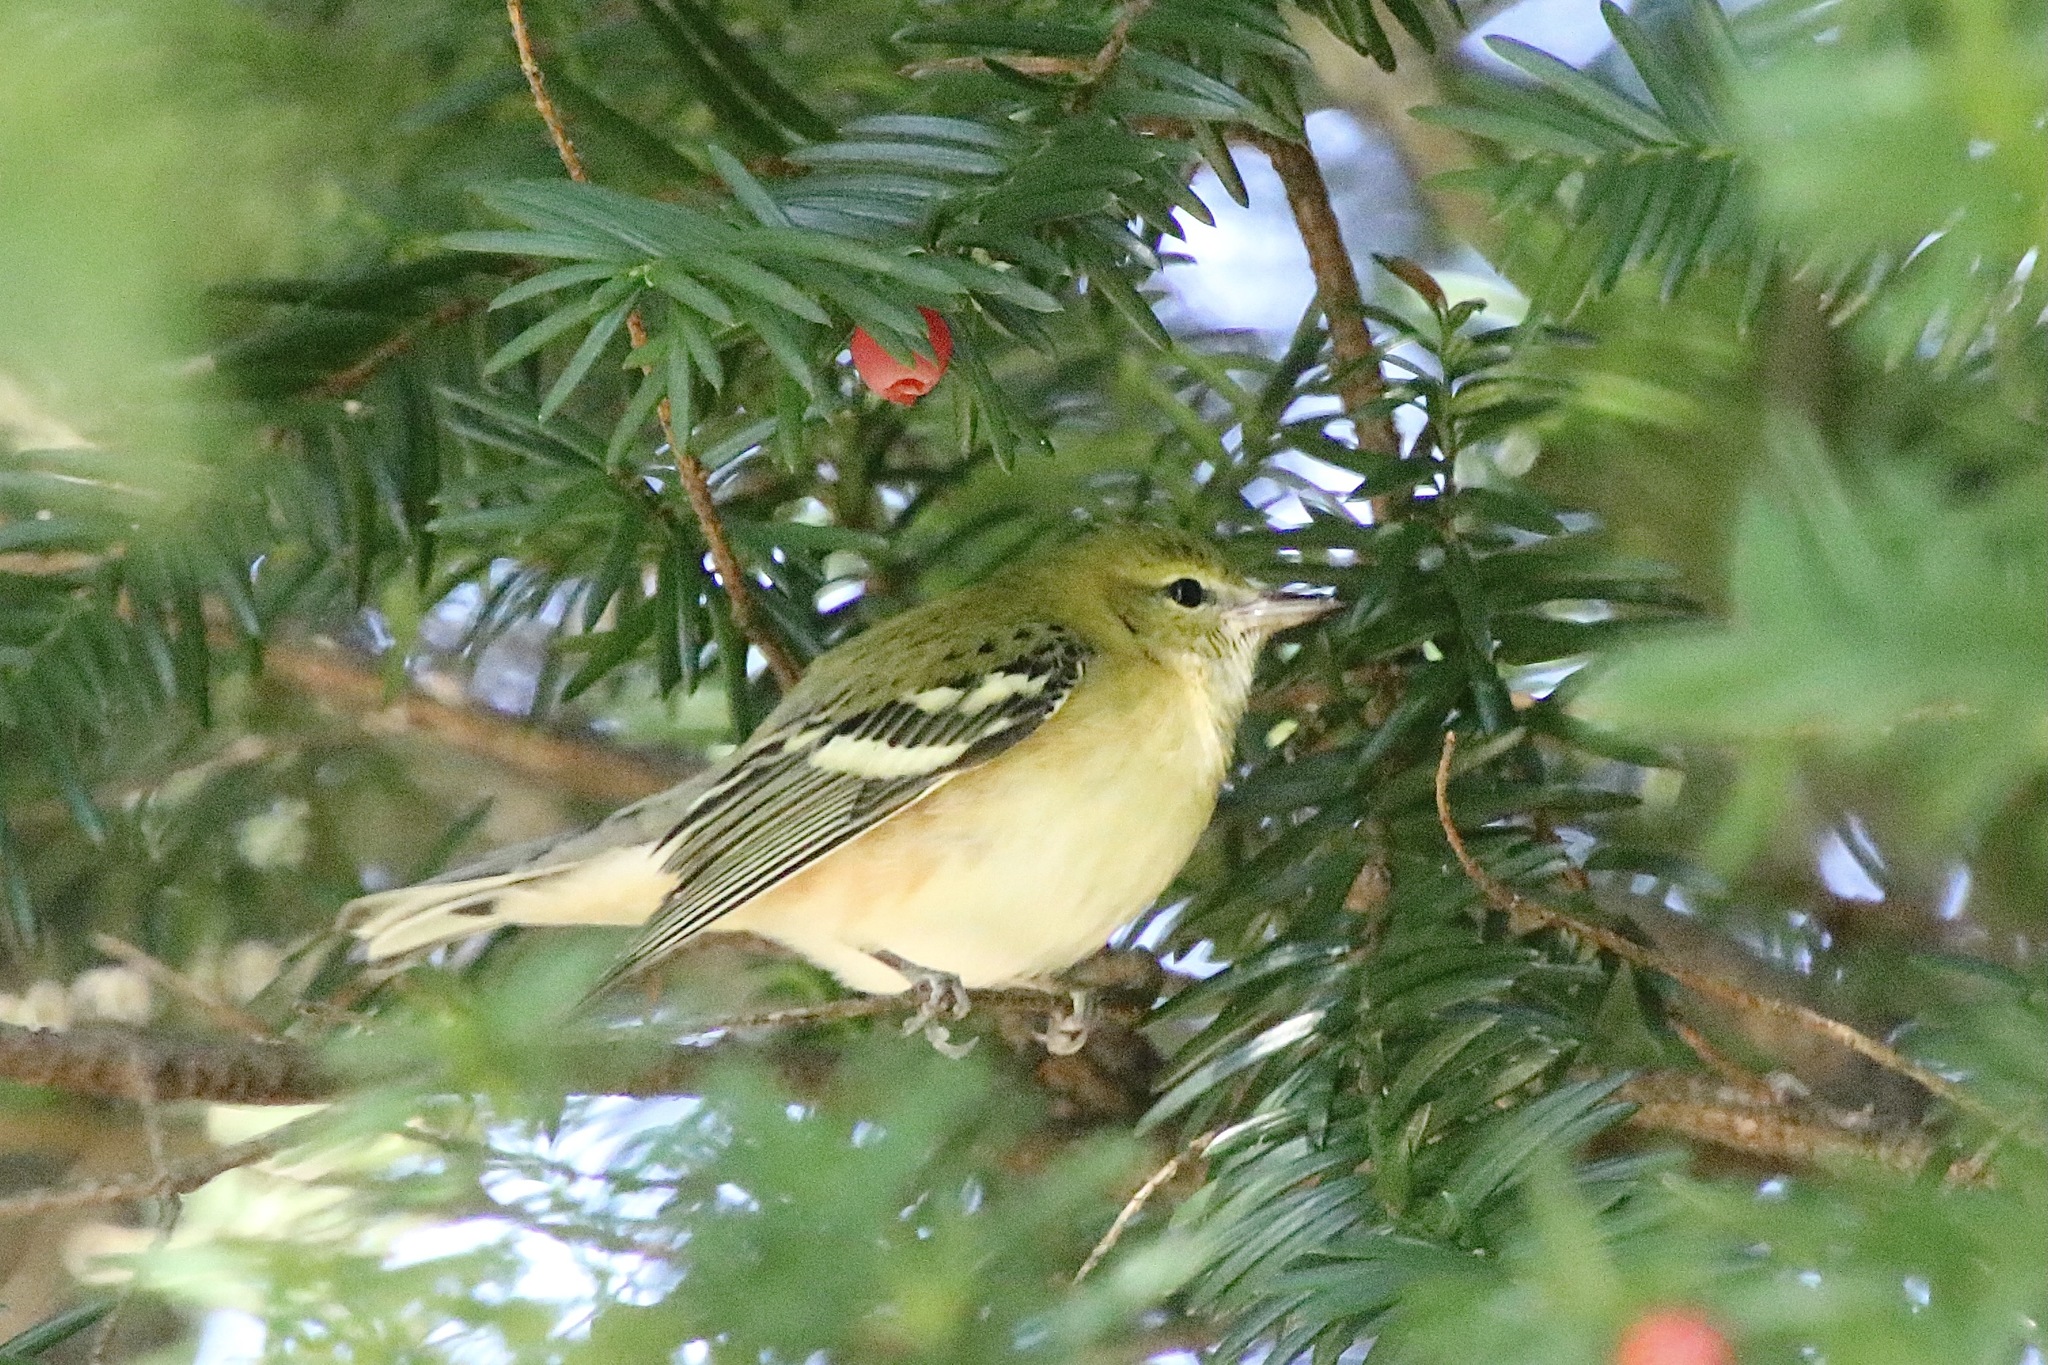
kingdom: Animalia
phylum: Chordata
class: Aves
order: Passeriformes
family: Parulidae
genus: Setophaga
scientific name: Setophaga castanea
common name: Bay-breasted warbler
